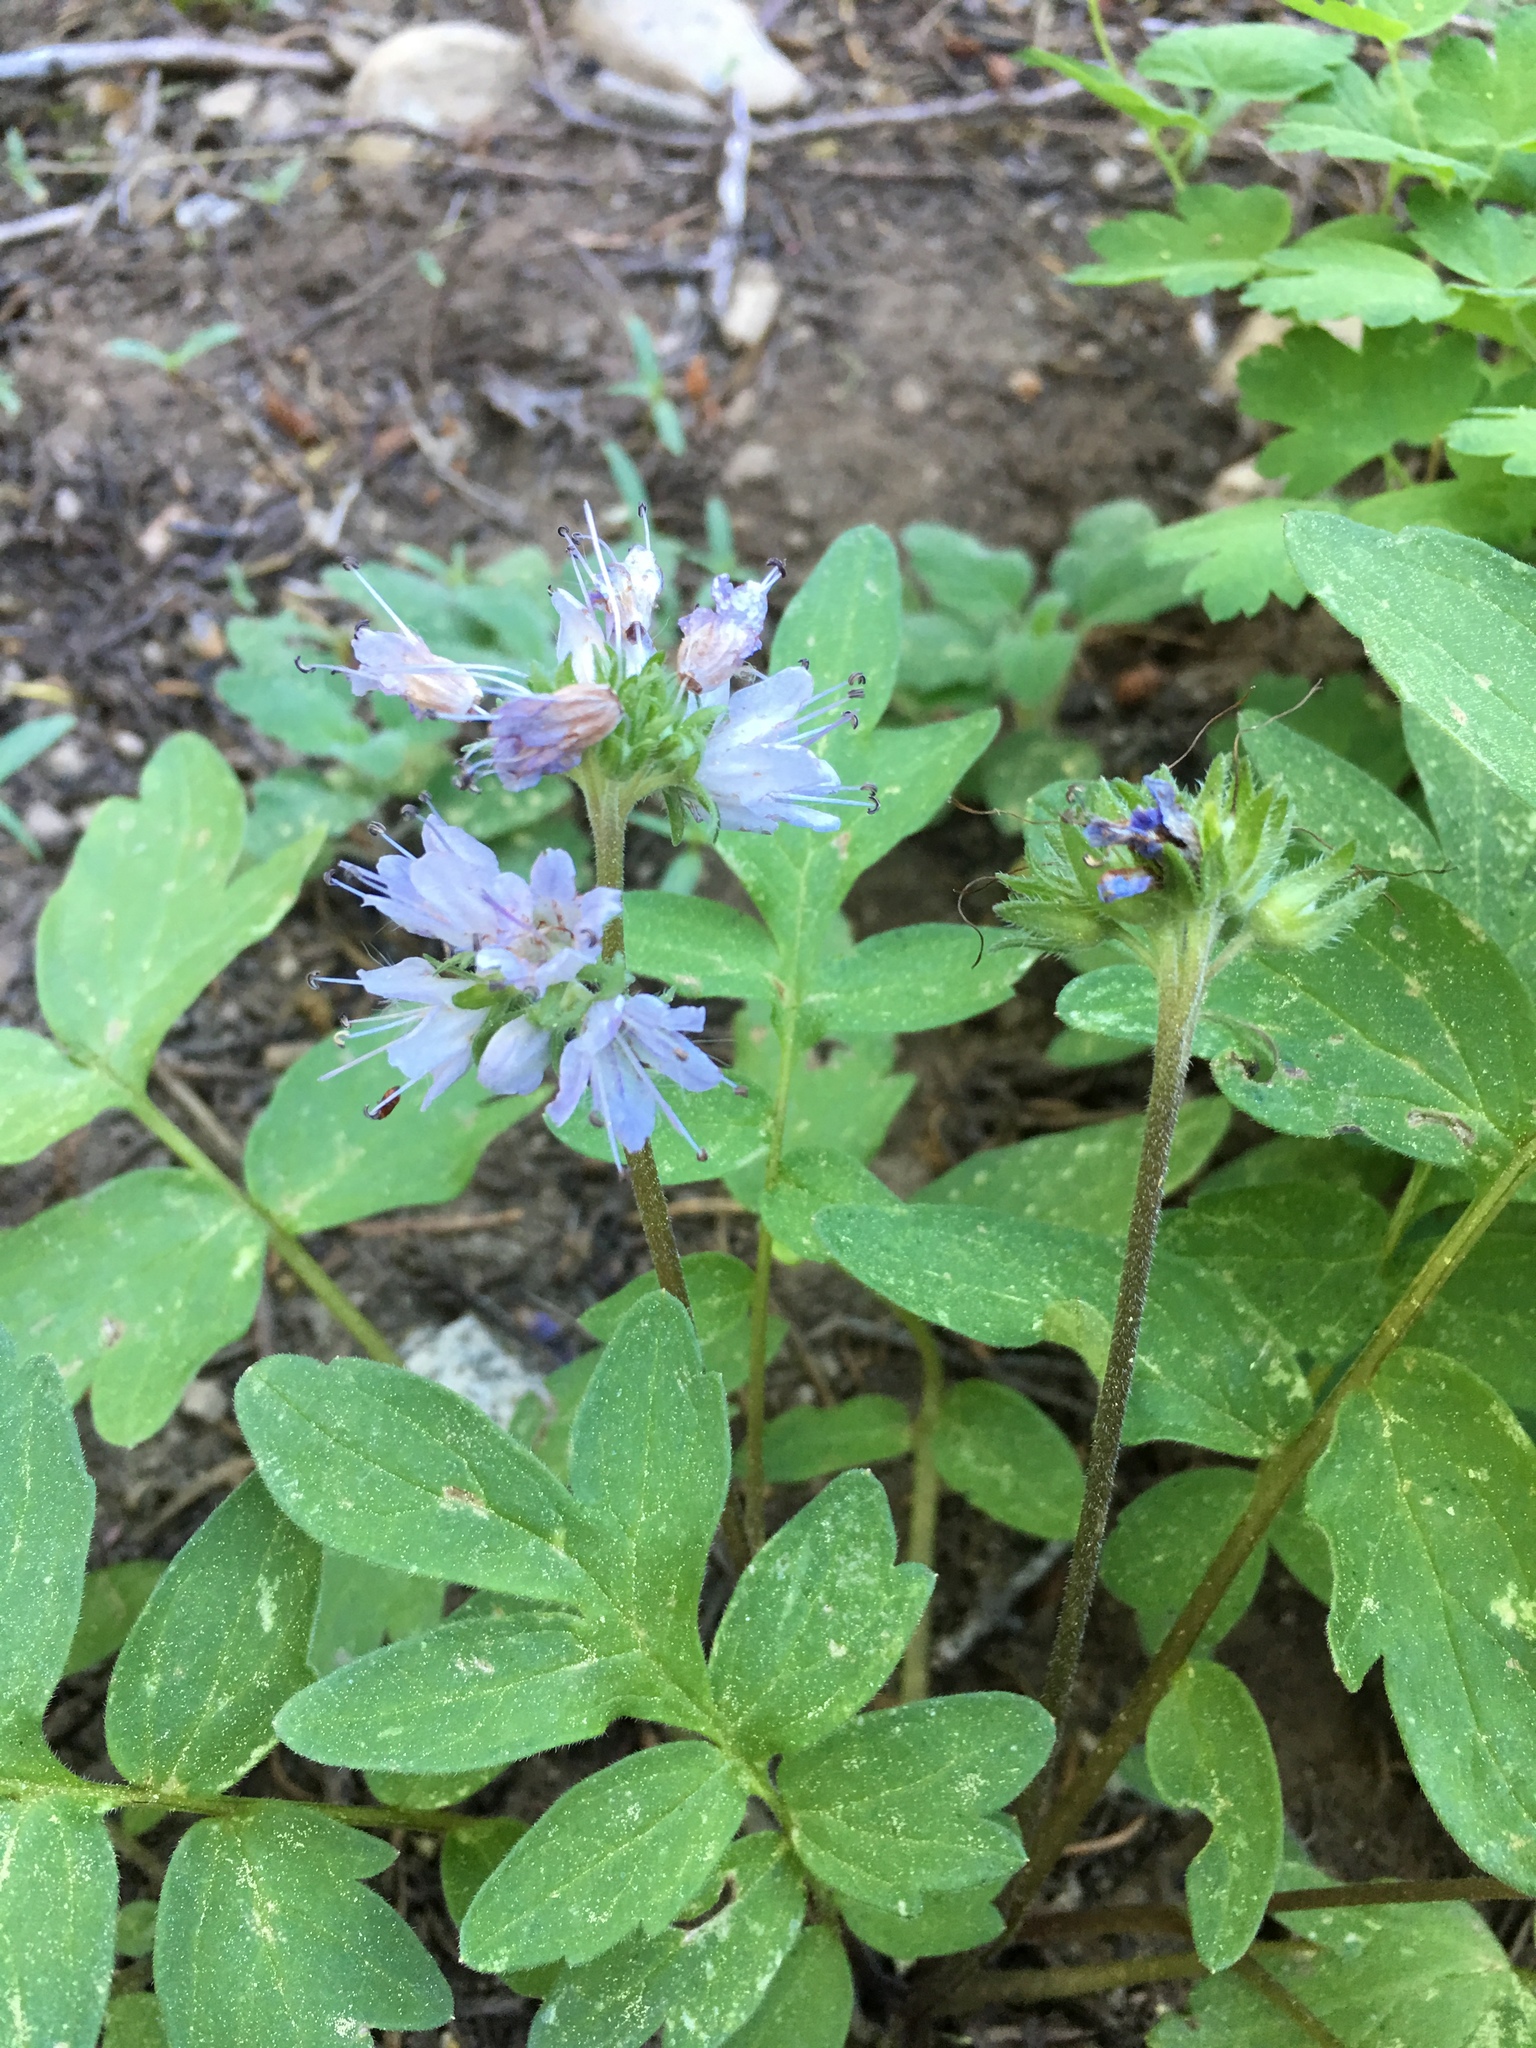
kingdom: Plantae
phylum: Tracheophyta
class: Magnoliopsida
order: Boraginales
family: Hydrophyllaceae
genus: Hydrophyllum
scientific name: Hydrophyllum capitatum
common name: Woollen-breeches
